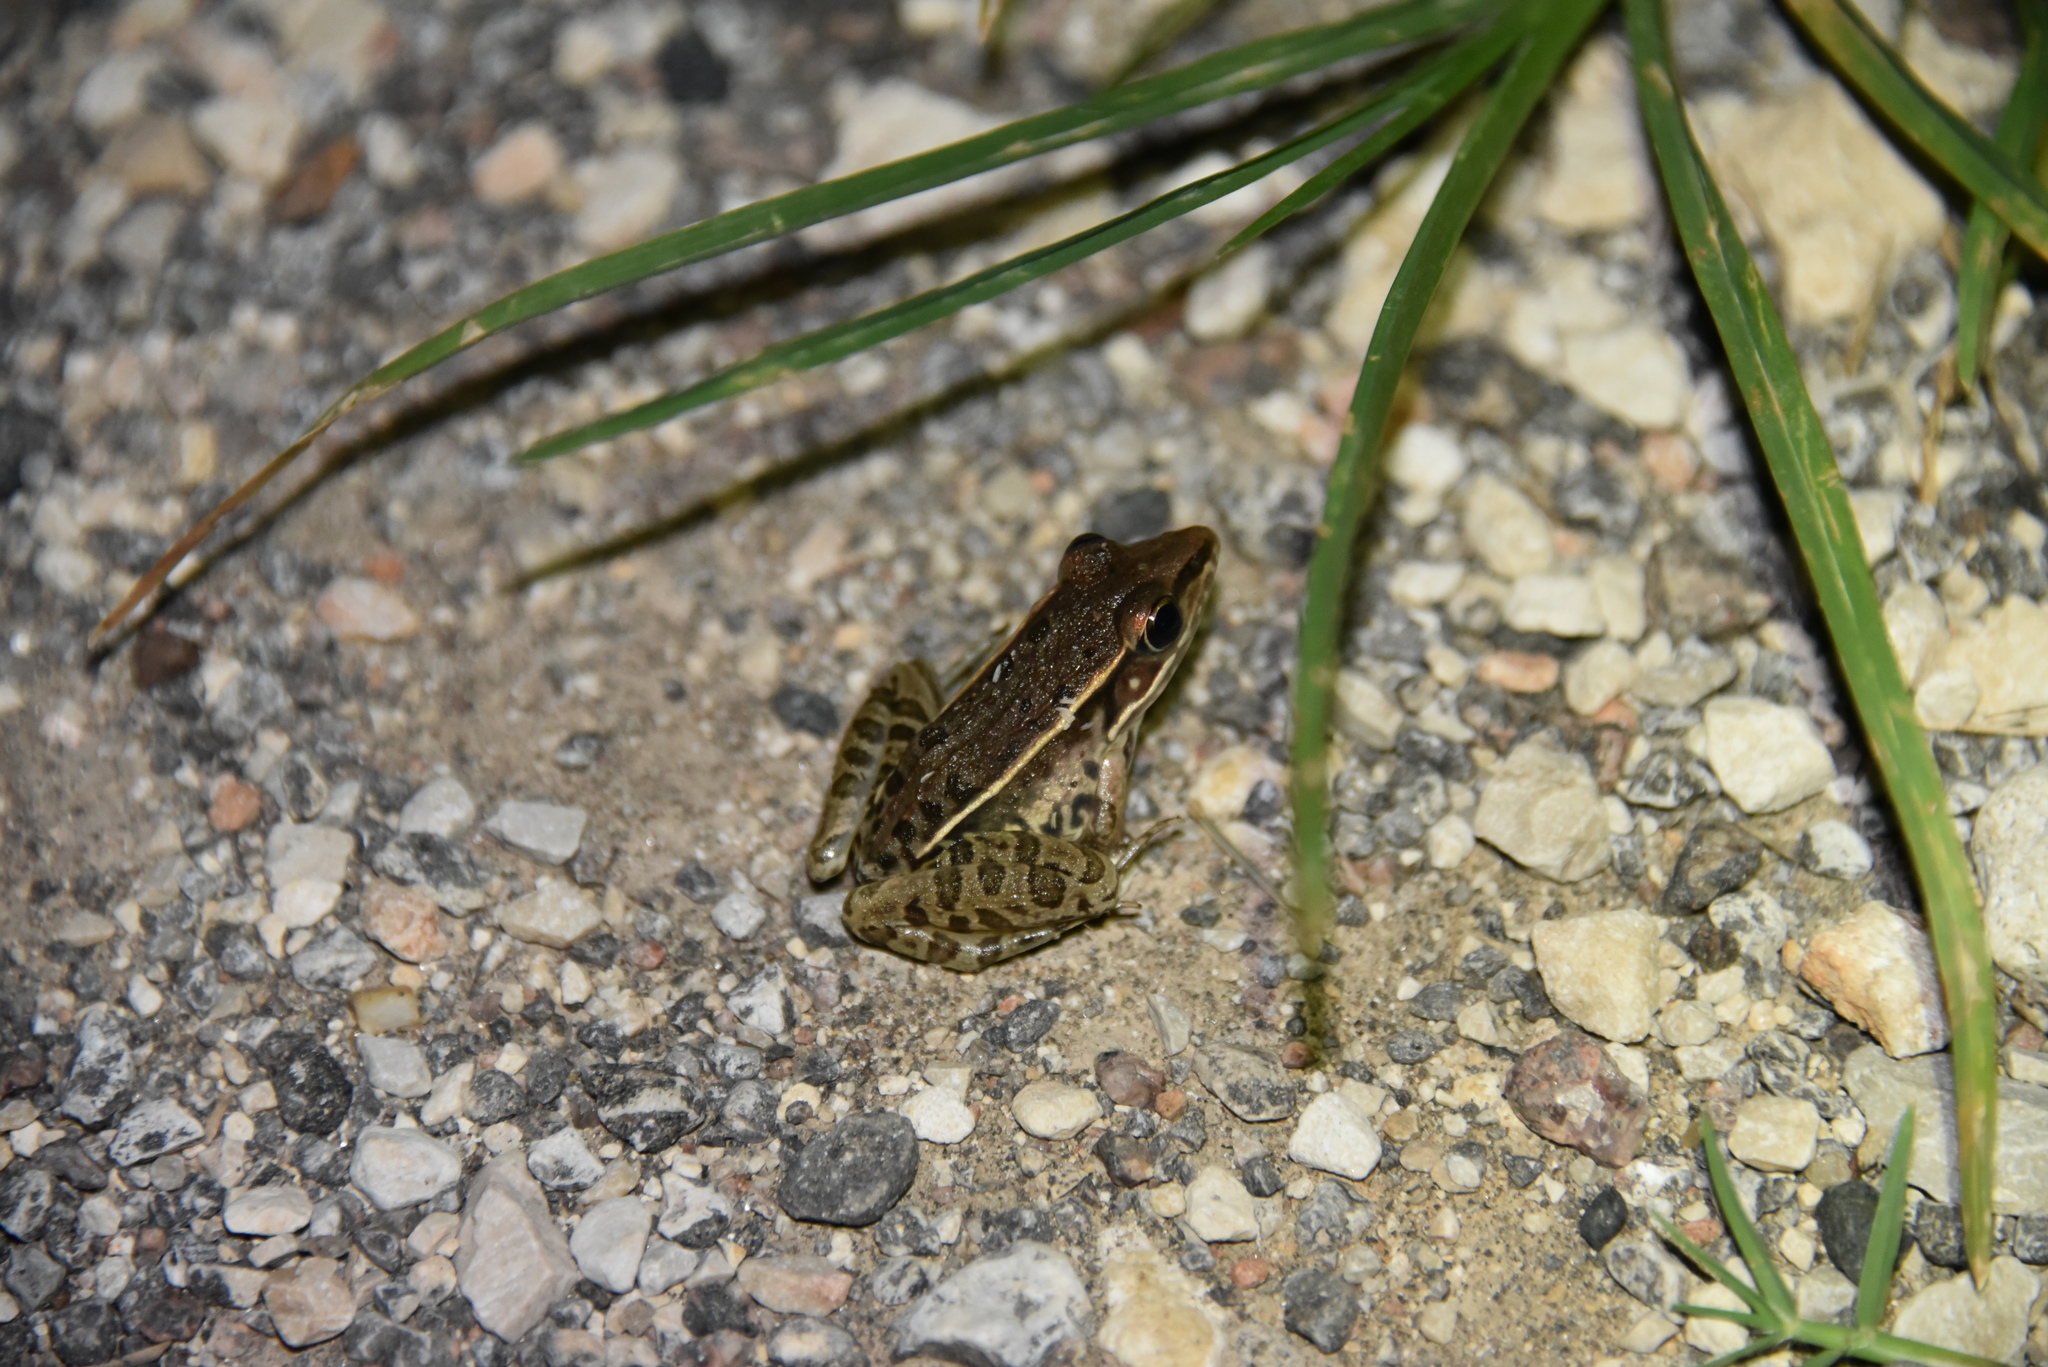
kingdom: Animalia
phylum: Chordata
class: Amphibia
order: Anura
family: Ranidae
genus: Lithobates
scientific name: Lithobates sphenocephalus
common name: Southern leopard frog
